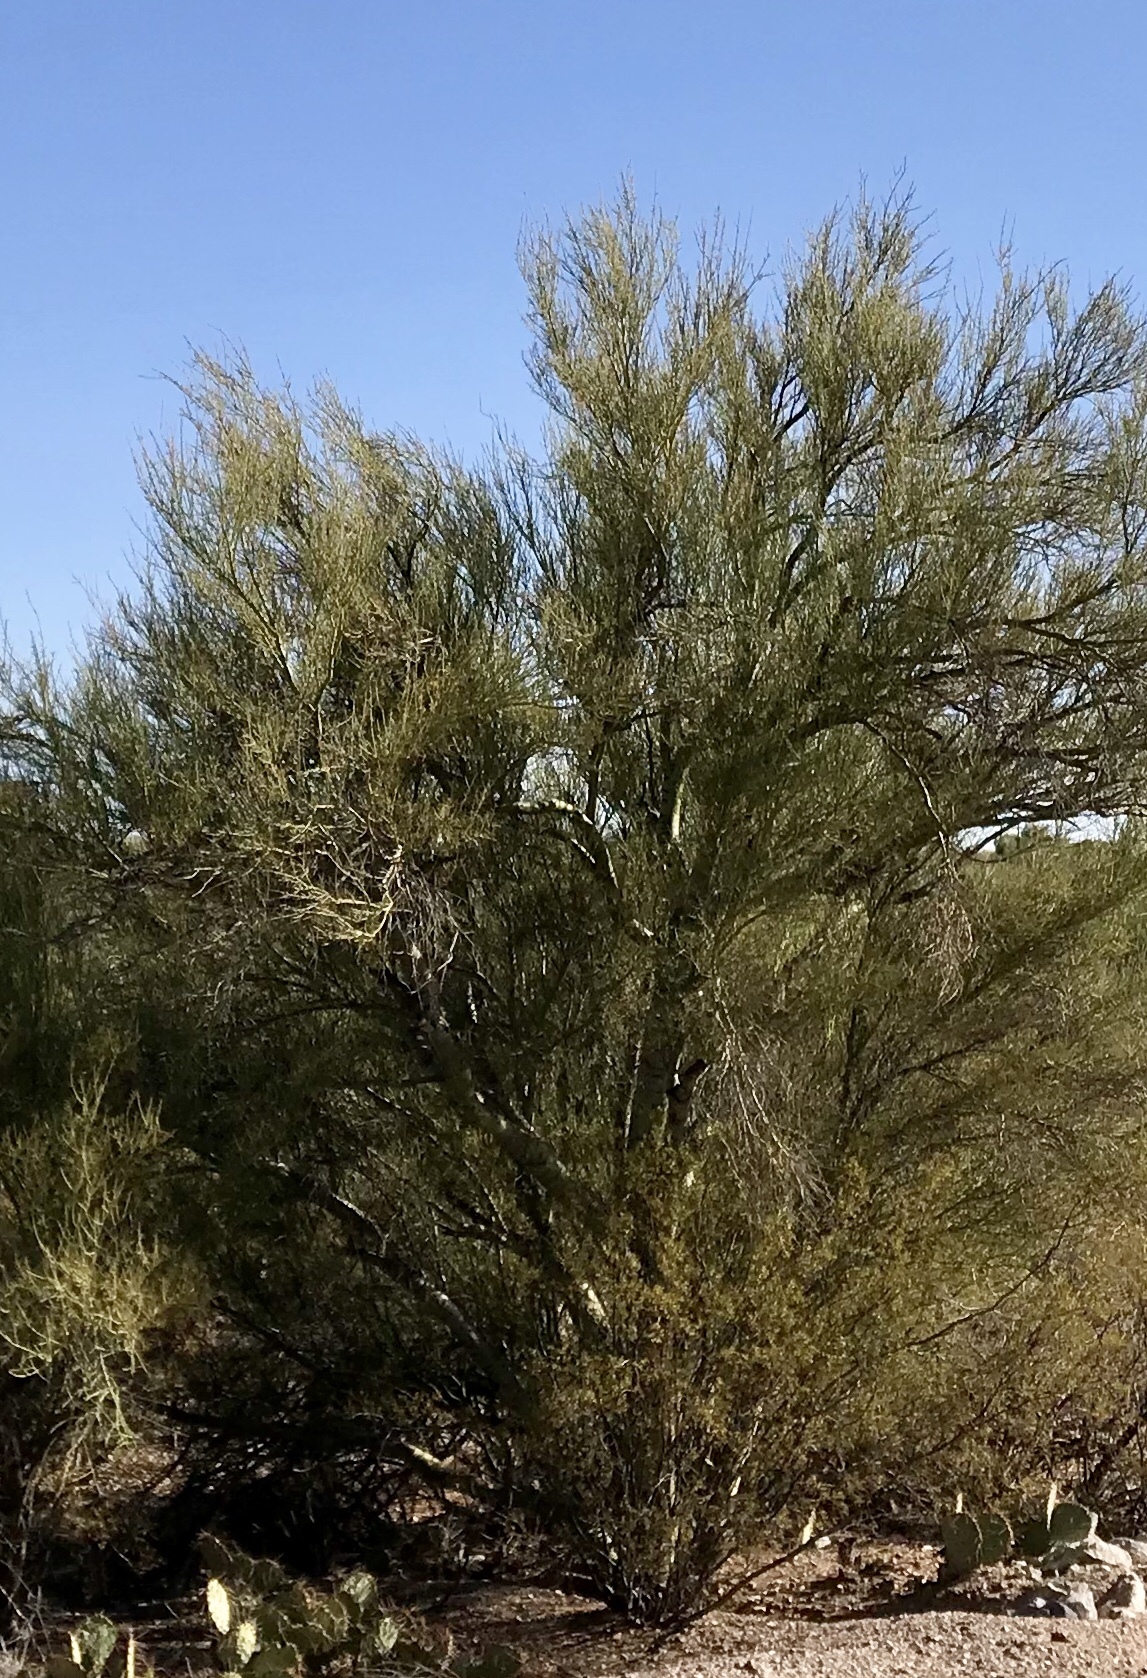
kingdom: Plantae
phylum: Tracheophyta
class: Magnoliopsida
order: Fabales
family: Fabaceae
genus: Parkinsonia
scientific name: Parkinsonia florida
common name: Blue paloverde
